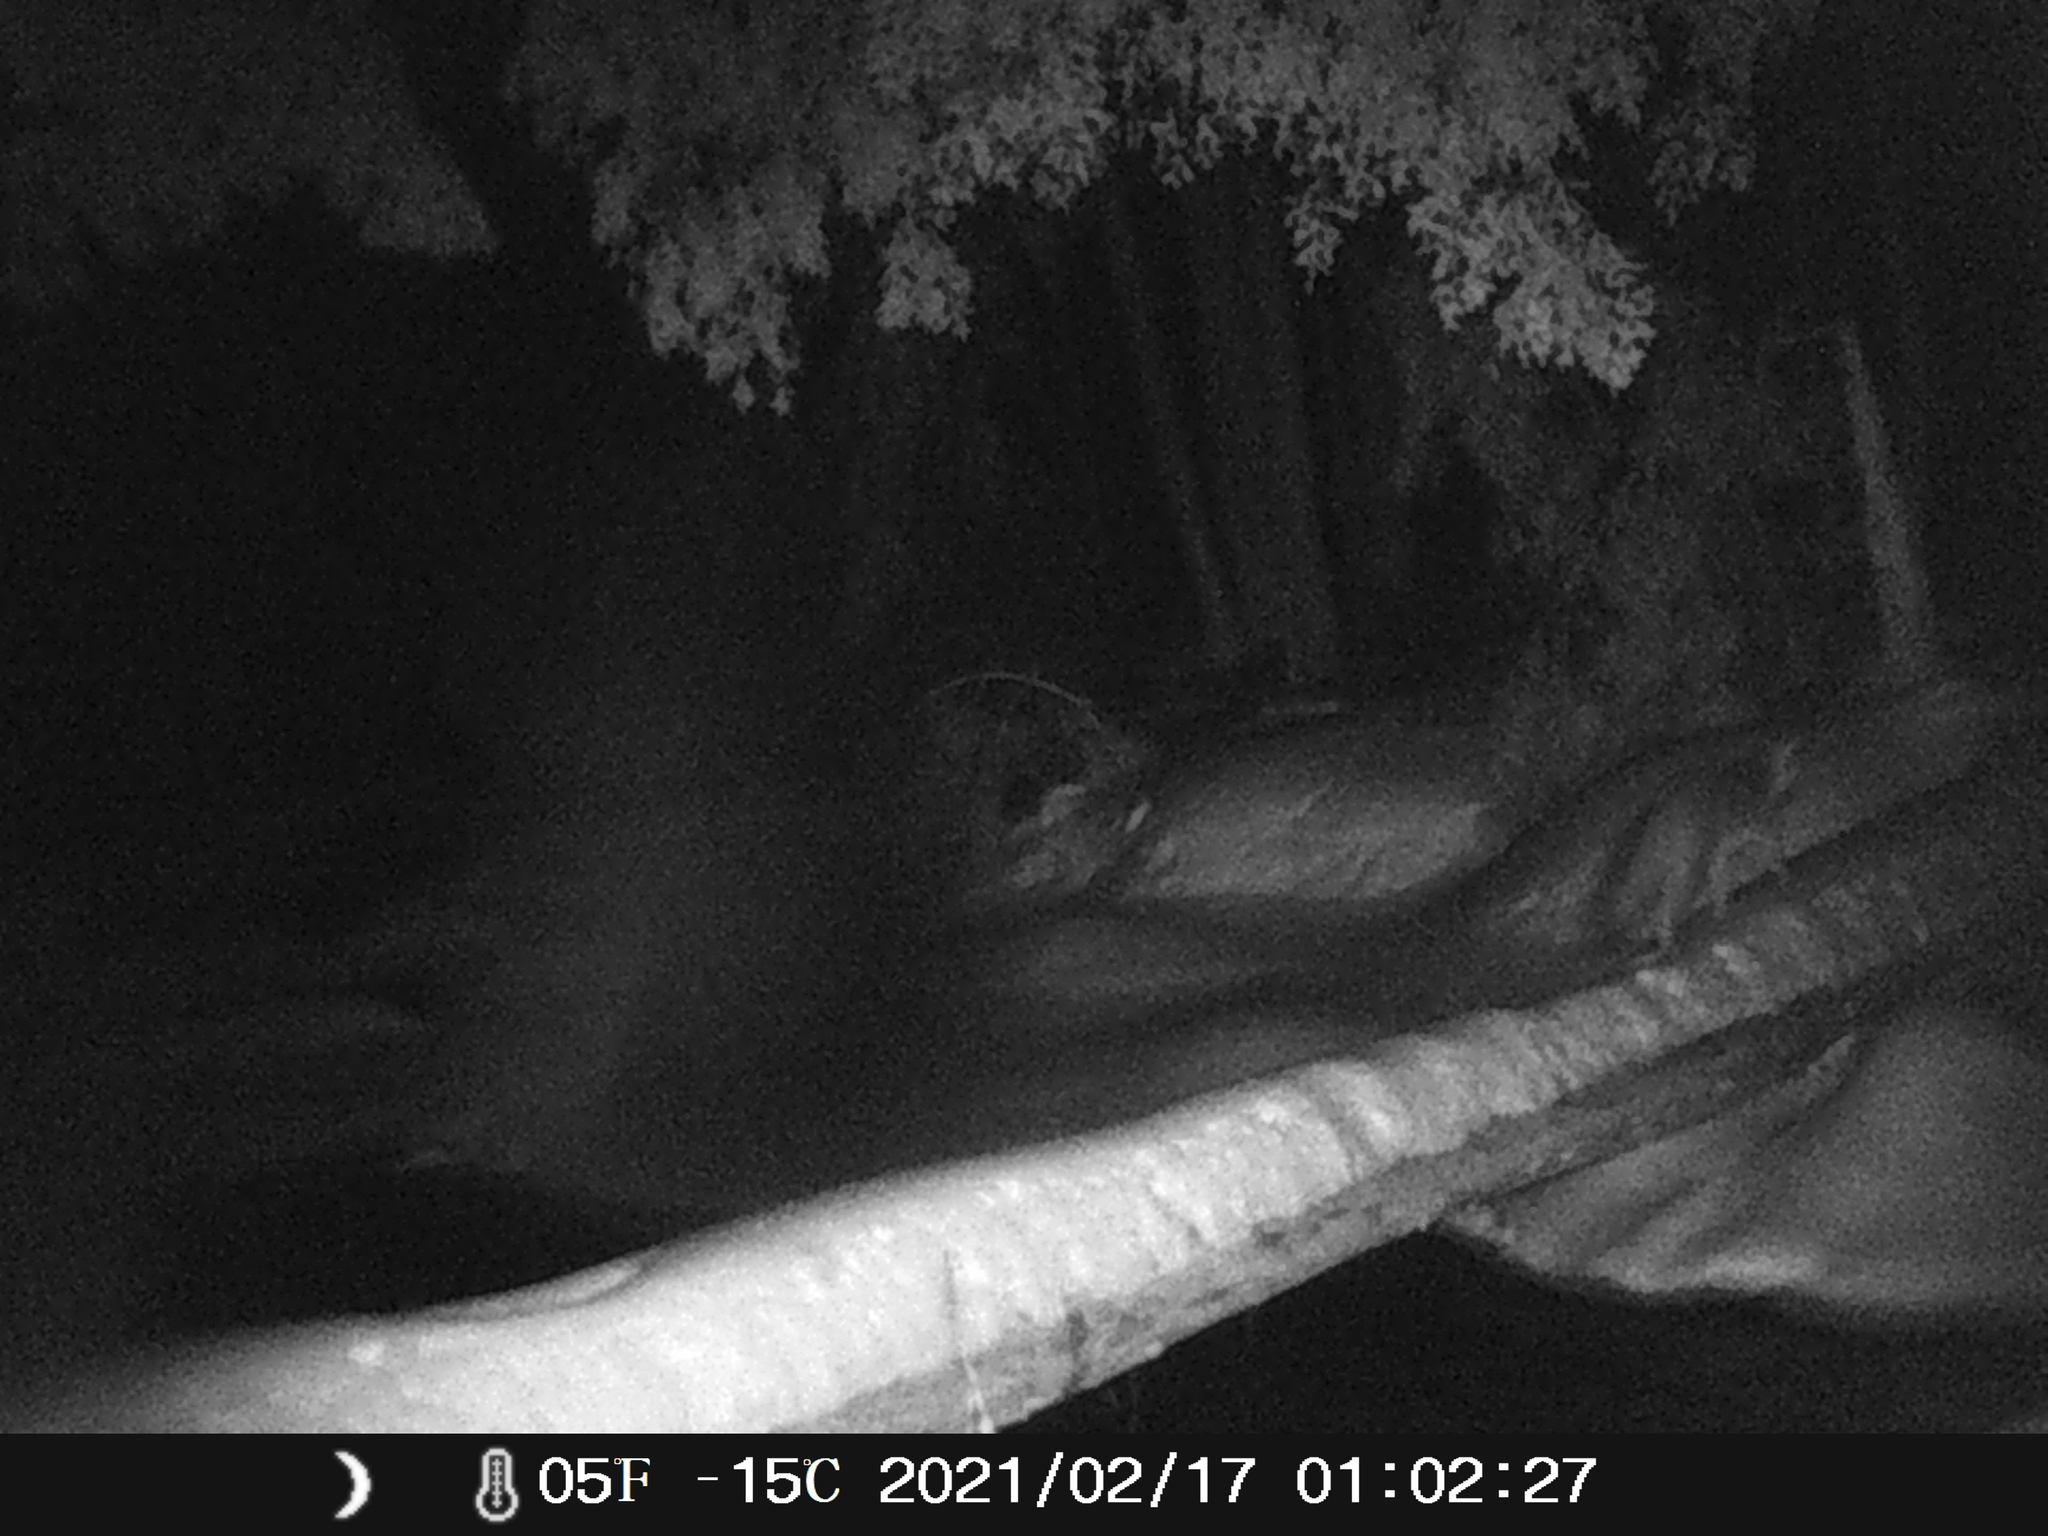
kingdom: Animalia
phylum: Chordata
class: Mammalia
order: Carnivora
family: Canidae
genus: Urocyon
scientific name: Urocyon cinereoargenteus
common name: Gray fox
